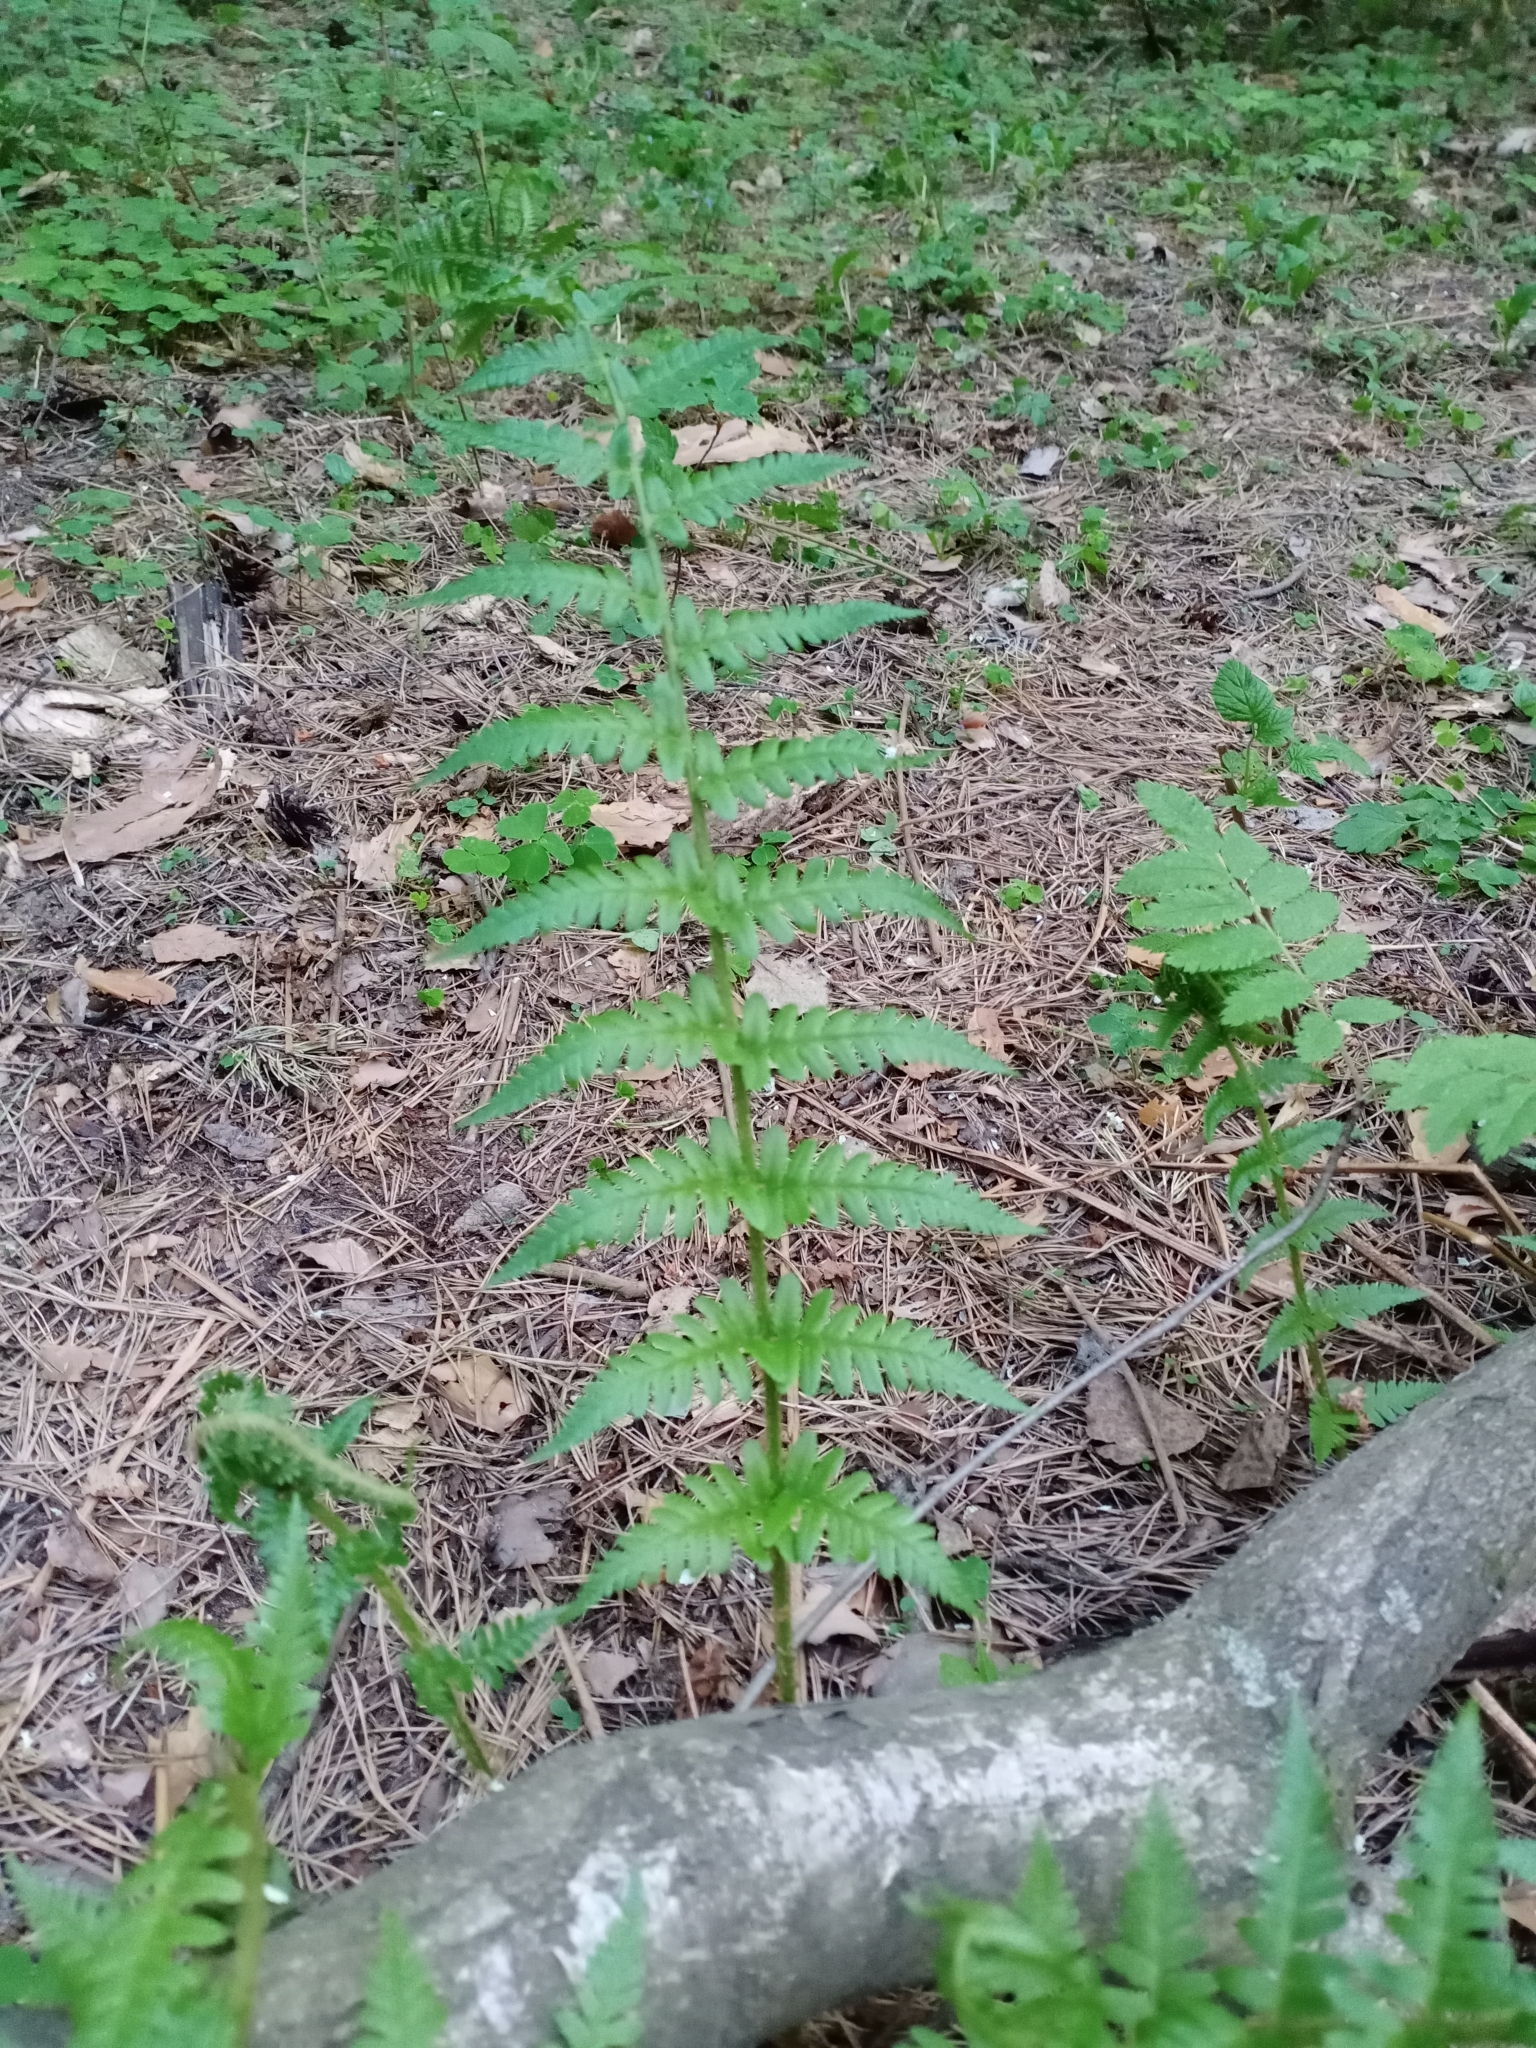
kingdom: Plantae
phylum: Tracheophyta
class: Polypodiopsida
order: Polypodiales
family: Dryopteridaceae
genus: Dryopteris
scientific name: Dryopteris filix-mas
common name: Male fern
